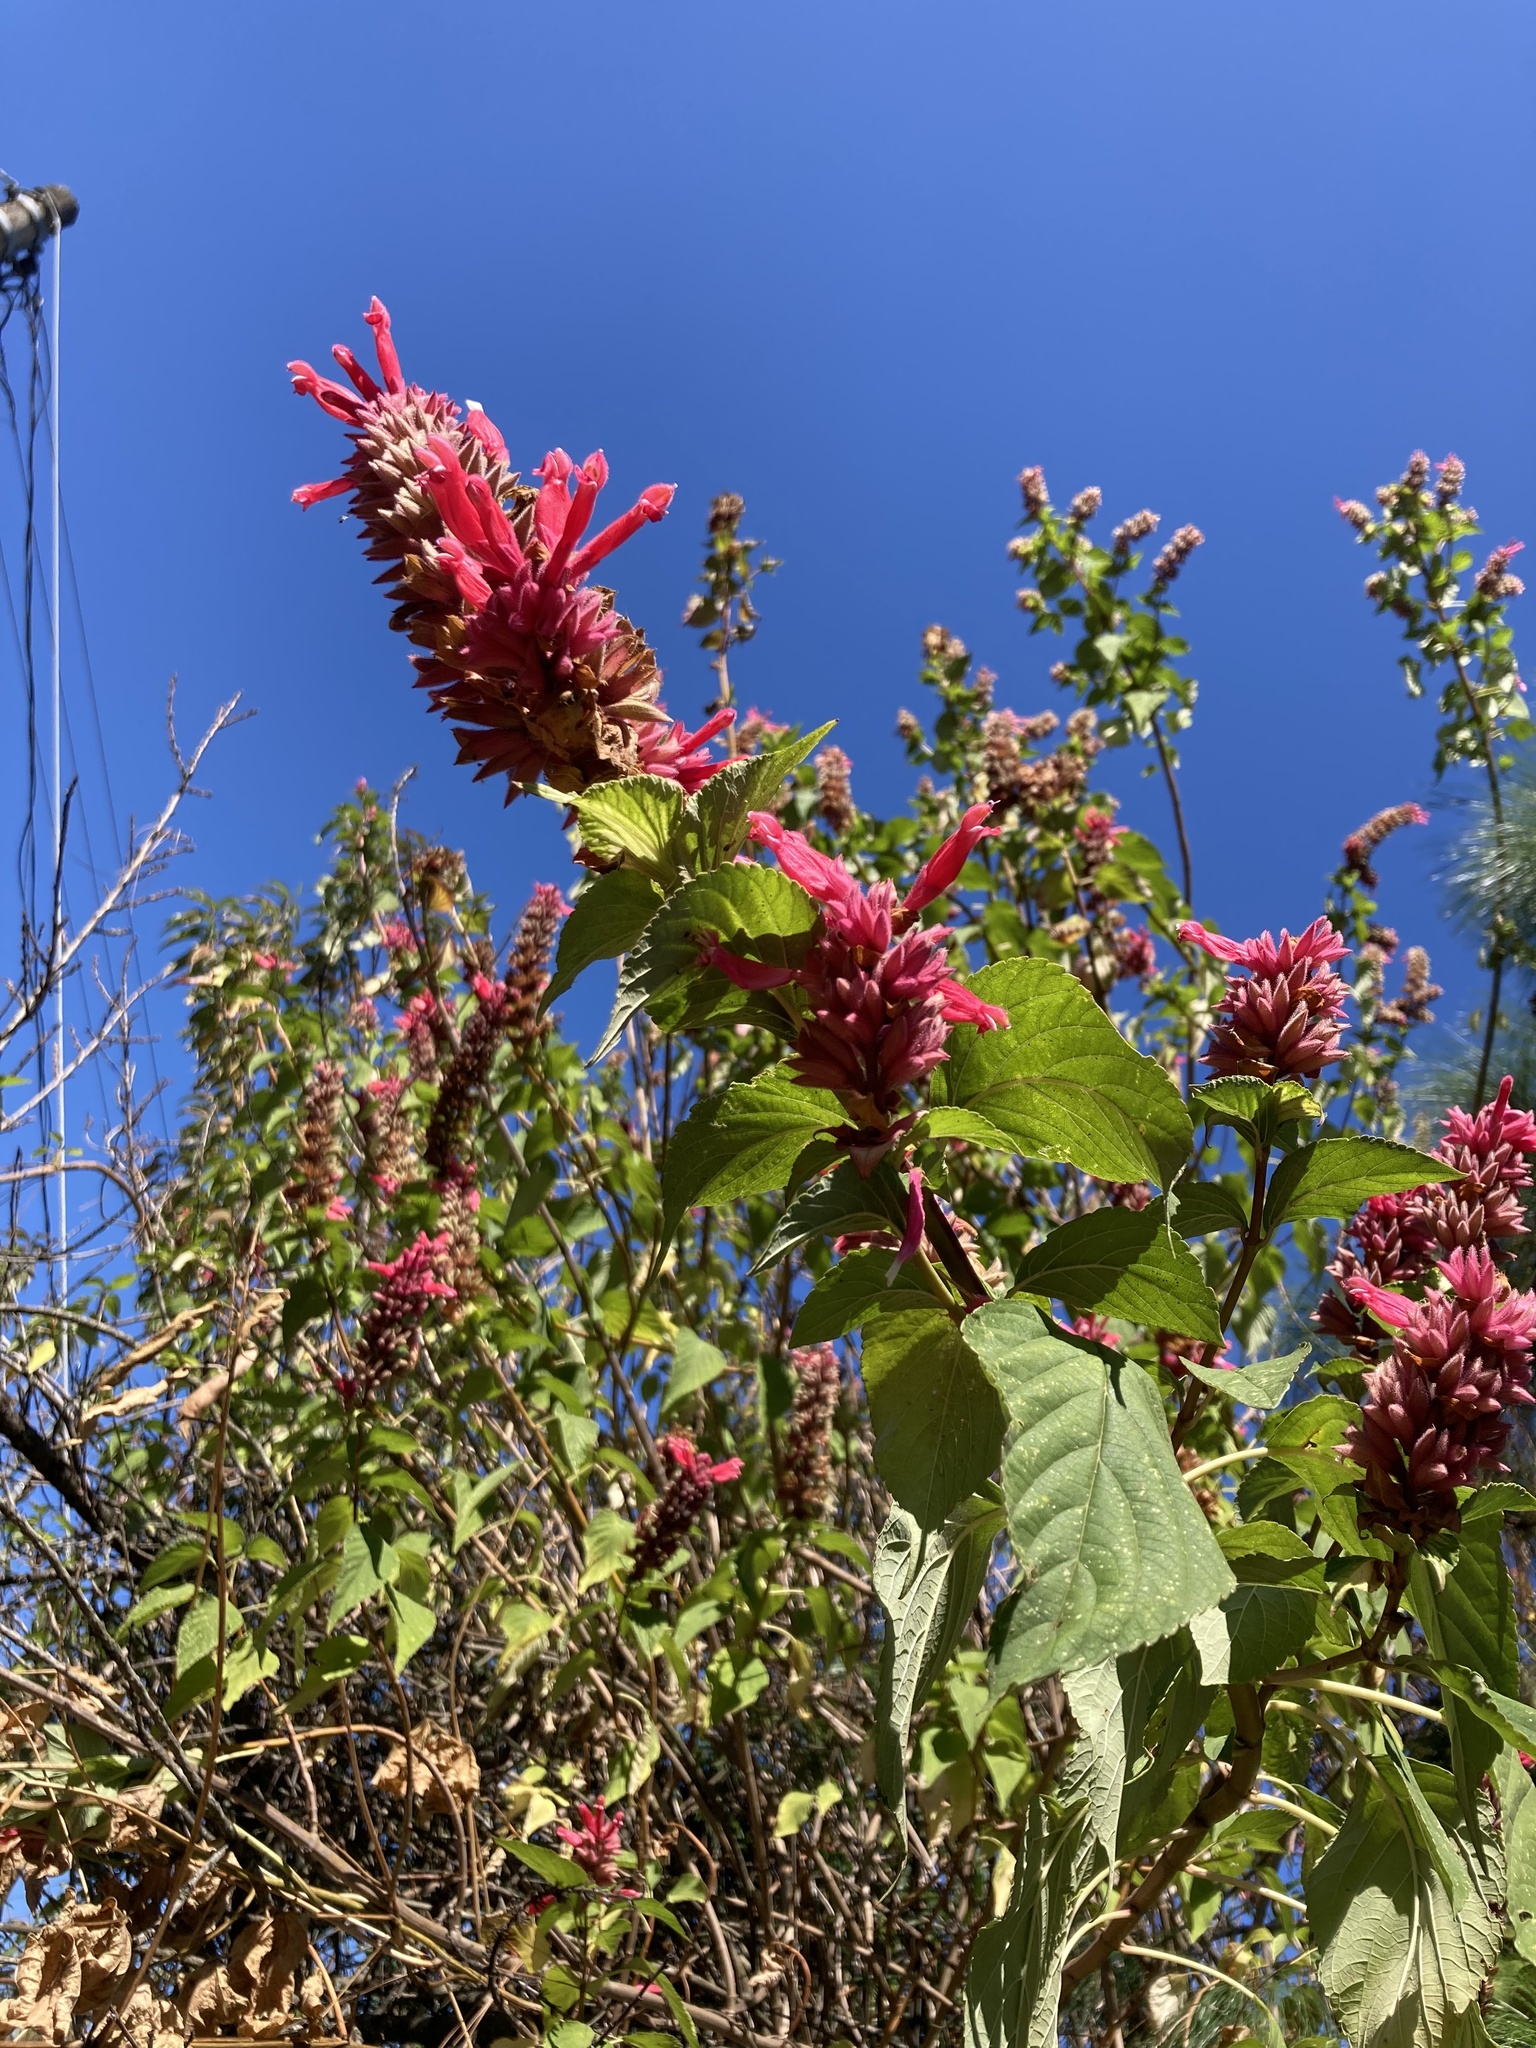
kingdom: Plantae
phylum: Tracheophyta
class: Magnoliopsida
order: Lamiales
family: Lamiaceae
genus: Salvia
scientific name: Salvia wagneriana
